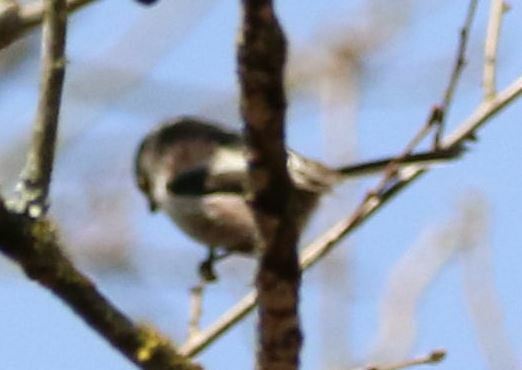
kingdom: Animalia
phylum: Chordata
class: Aves
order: Passeriformes
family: Aegithalidae
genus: Aegithalos
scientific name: Aegithalos caudatus
